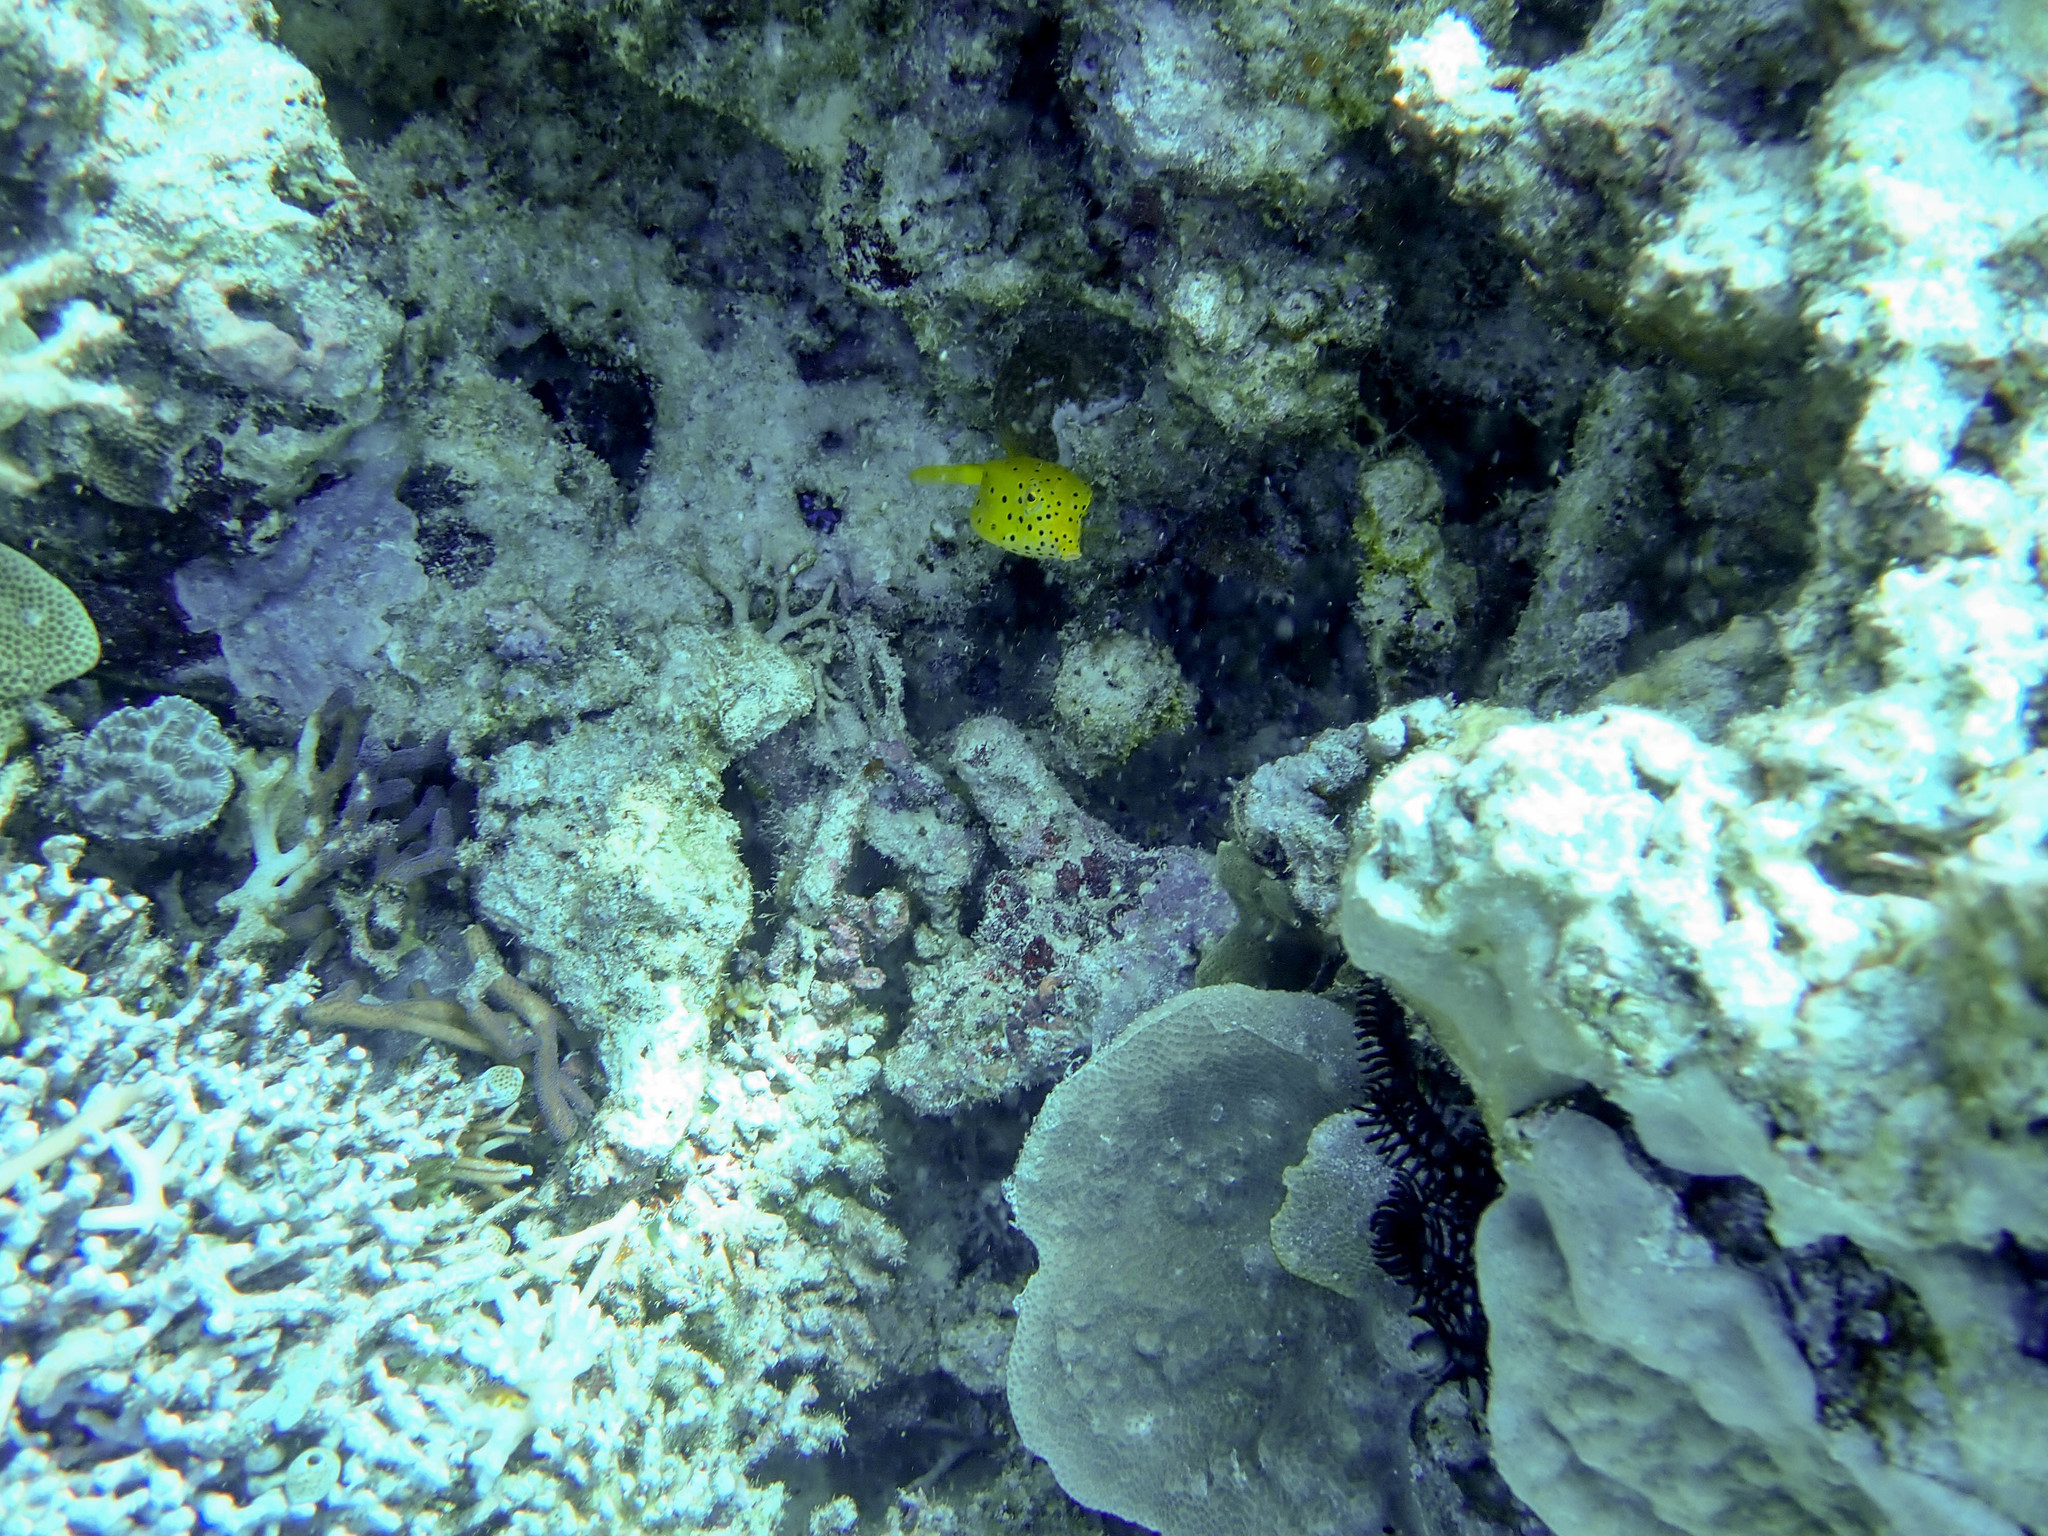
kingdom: Animalia
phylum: Chordata
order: Tetraodontiformes
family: Ostraciidae
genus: Ostracion
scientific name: Ostracion cubicus
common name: Cube trunkfish
